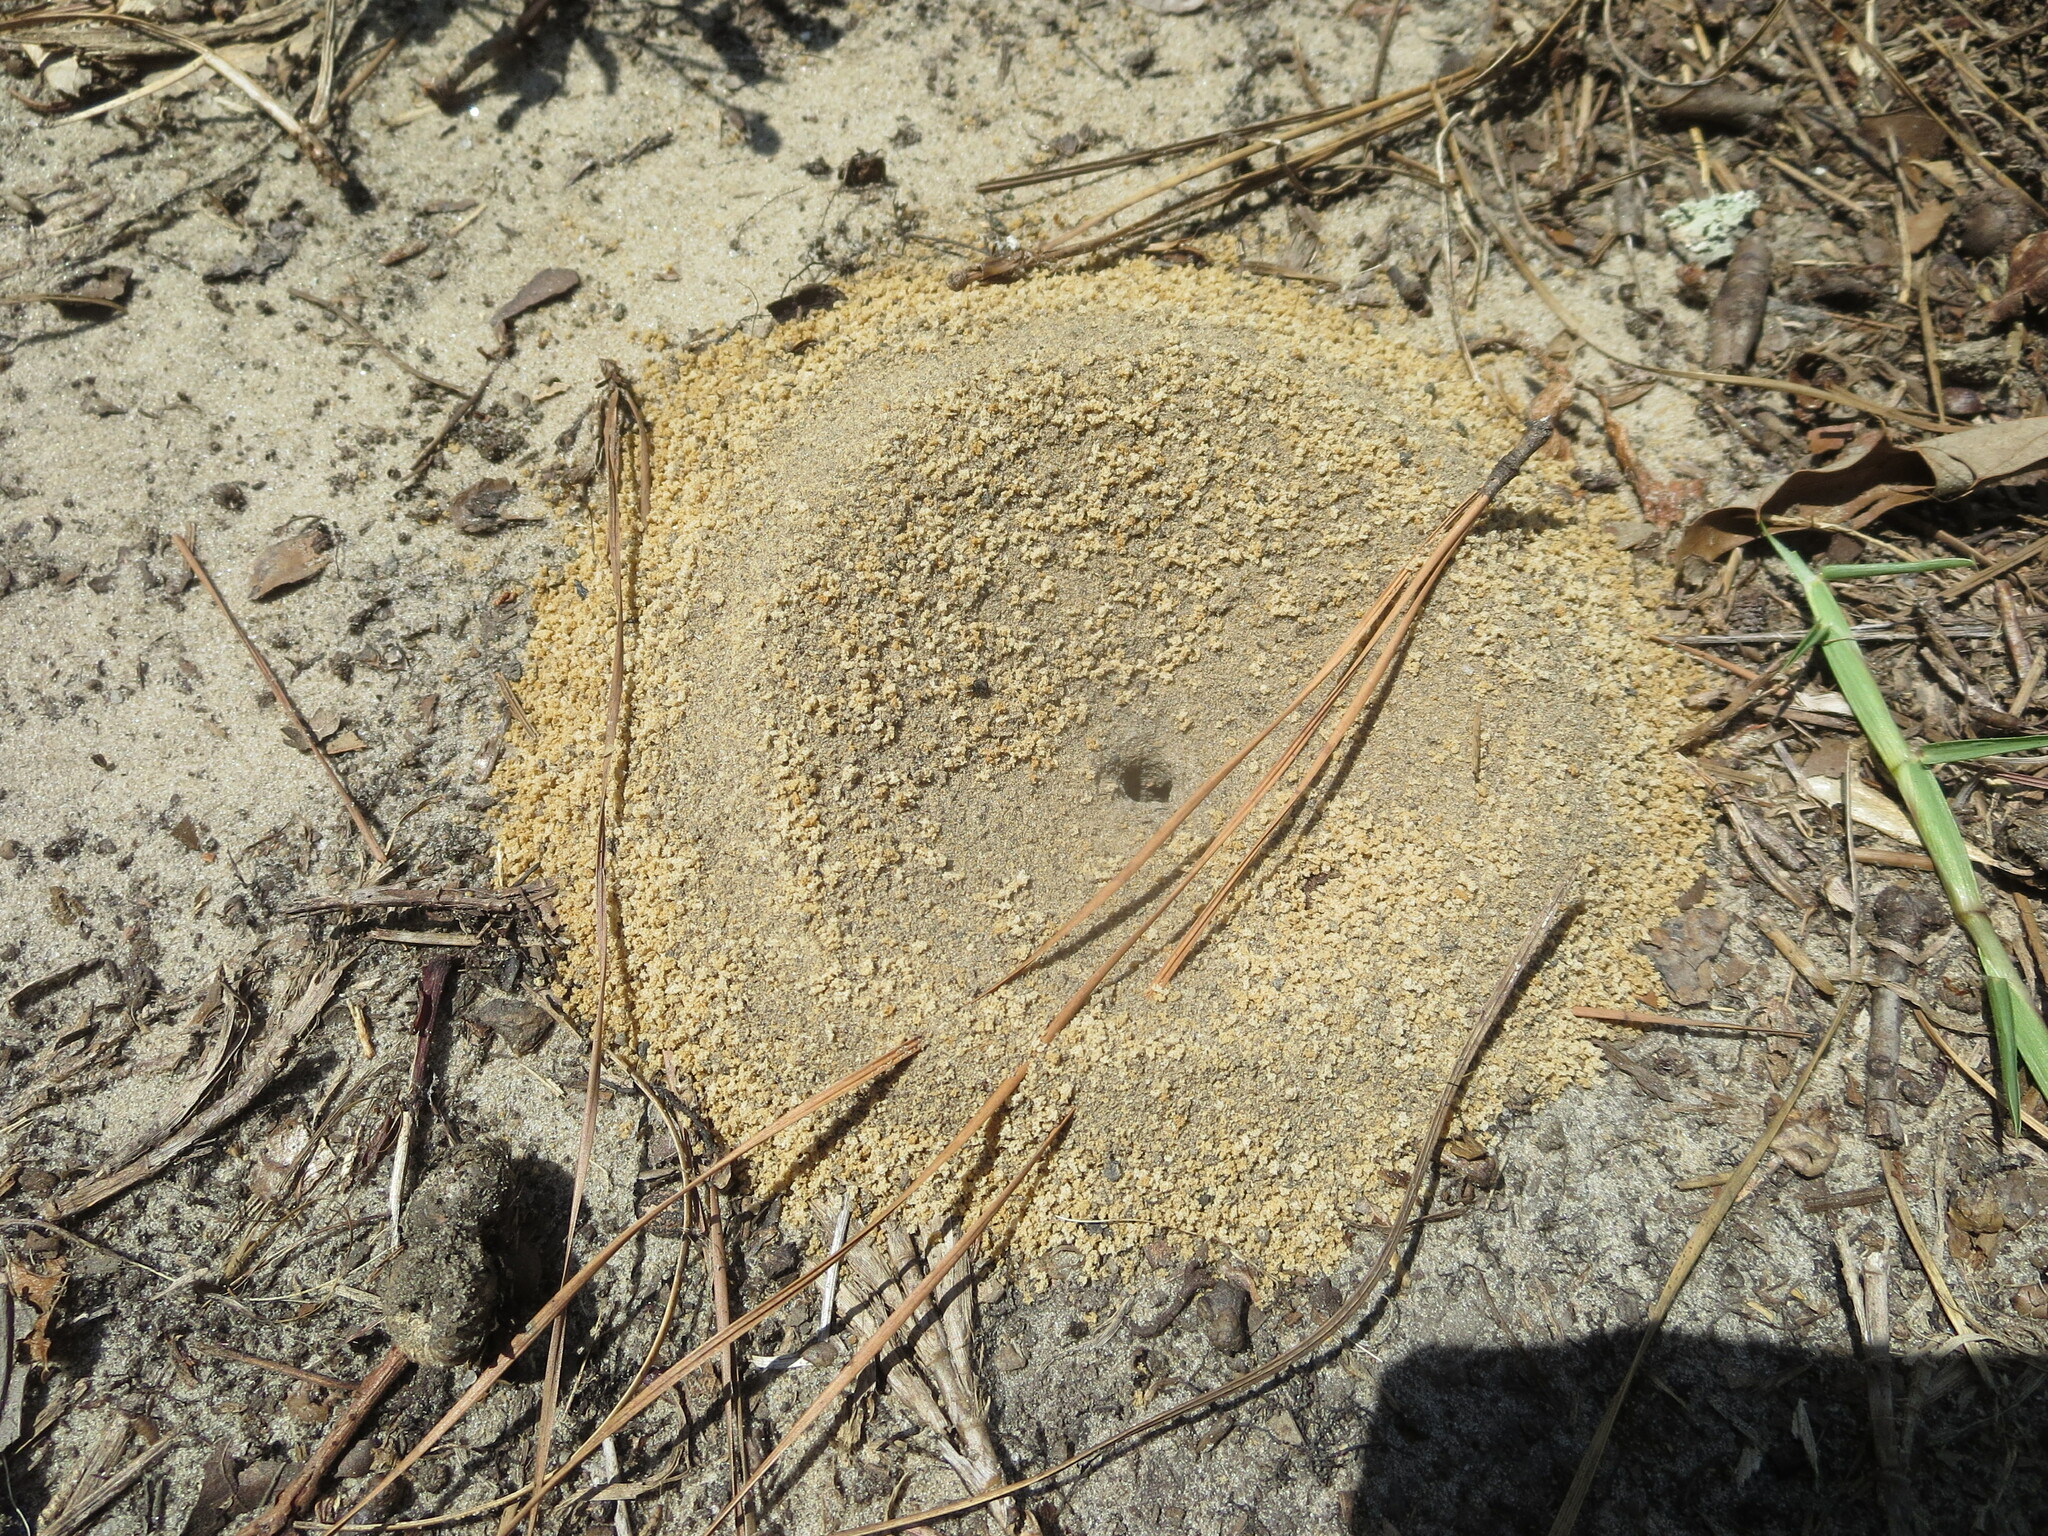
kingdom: Animalia
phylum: Arthropoda
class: Insecta
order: Hymenoptera
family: Formicidae
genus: Dorymyrmex
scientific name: Dorymyrmex bureni
